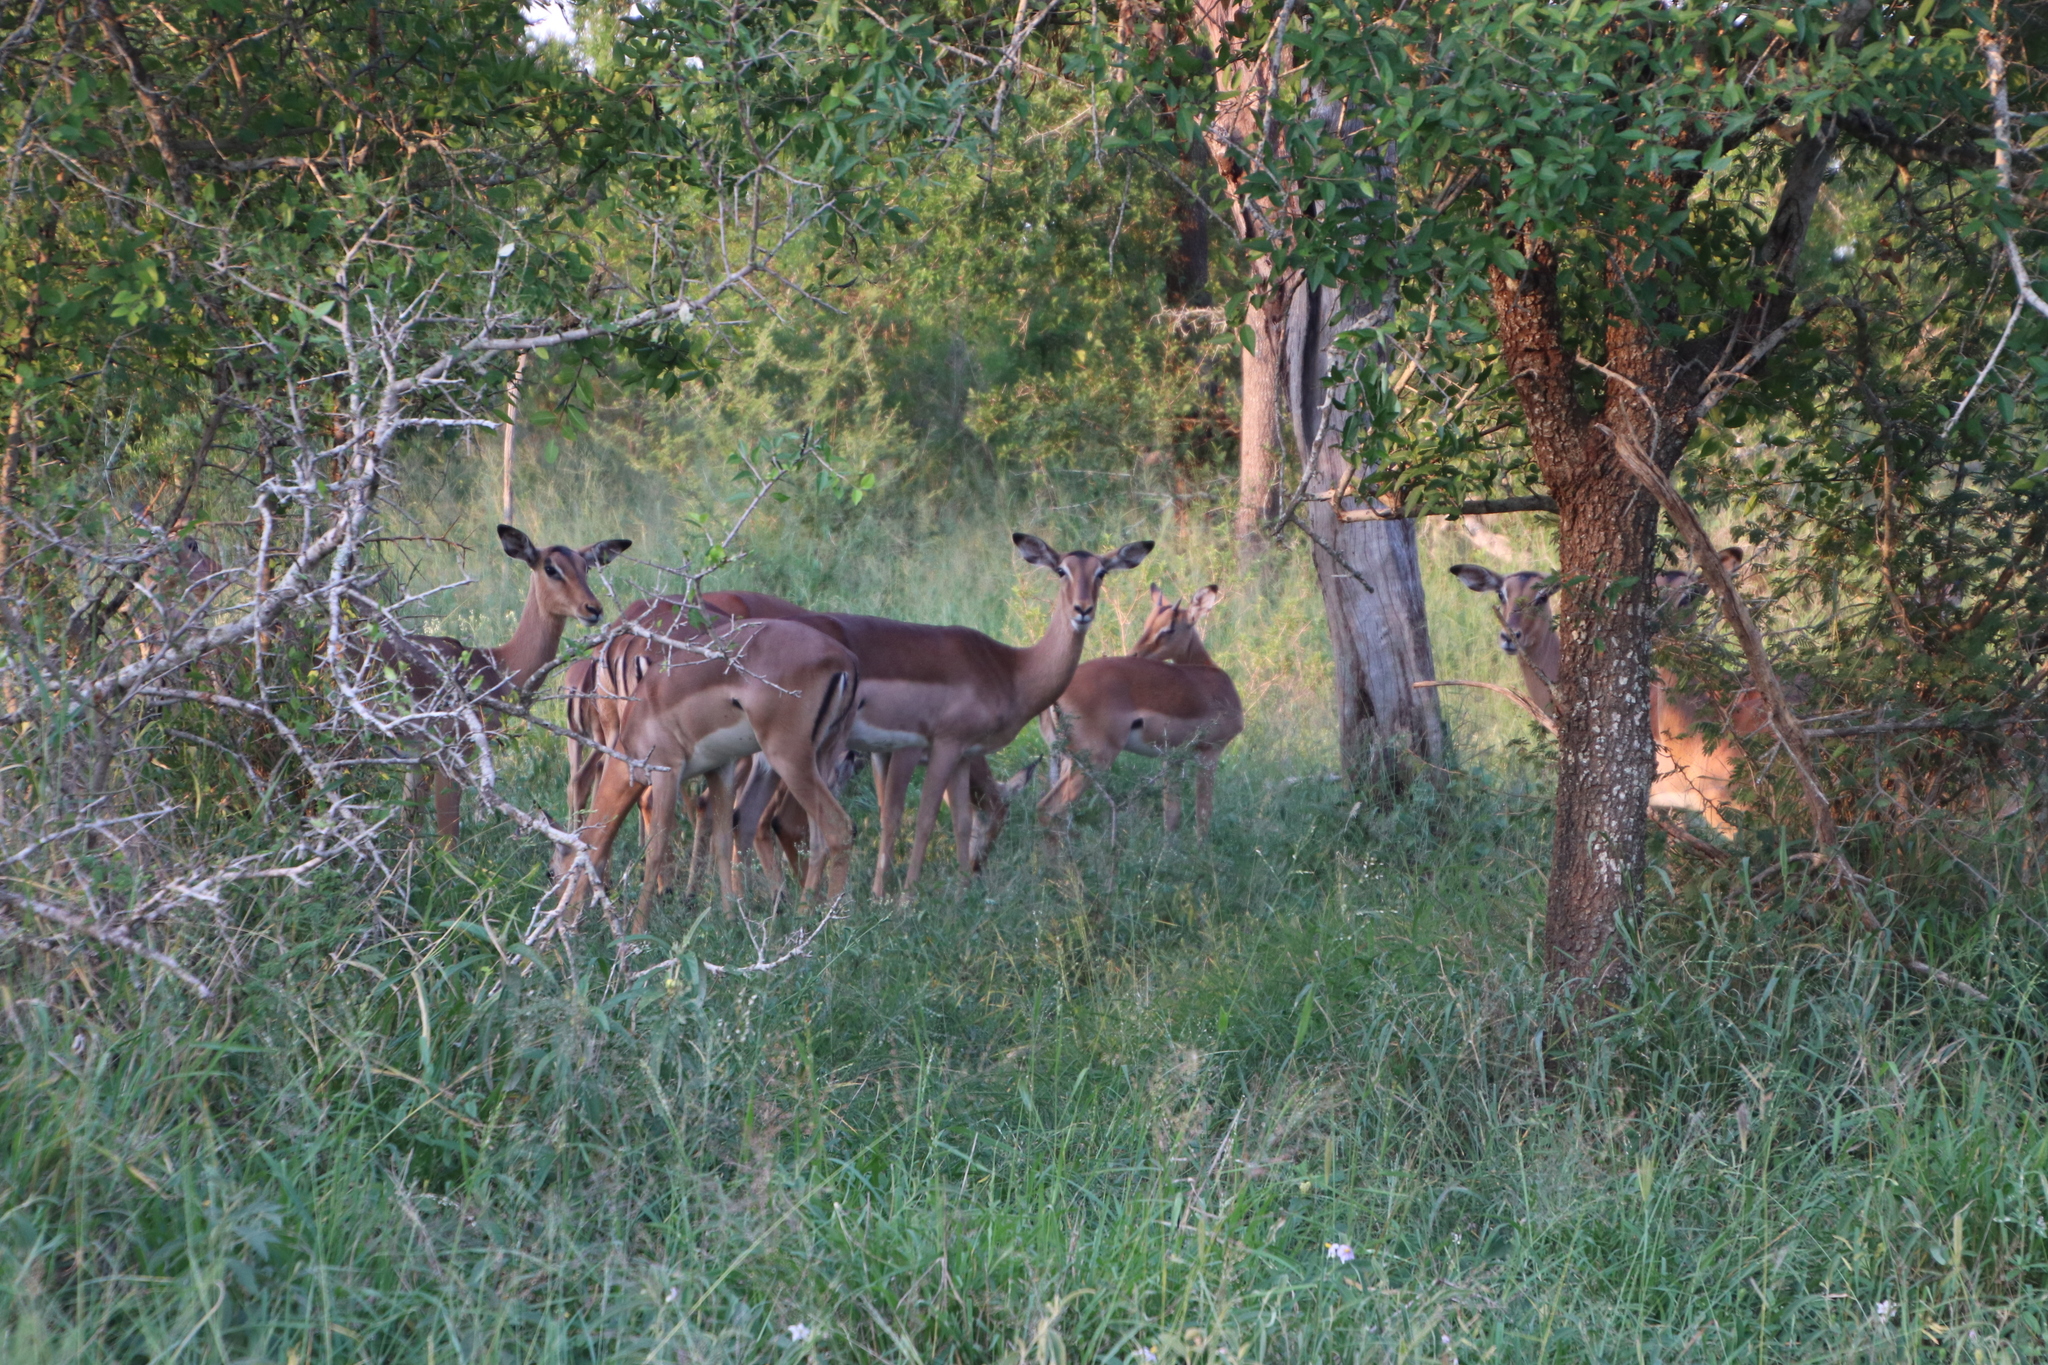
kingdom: Animalia
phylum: Chordata
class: Mammalia
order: Artiodactyla
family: Bovidae
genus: Aepyceros
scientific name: Aepyceros melampus
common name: Impala
